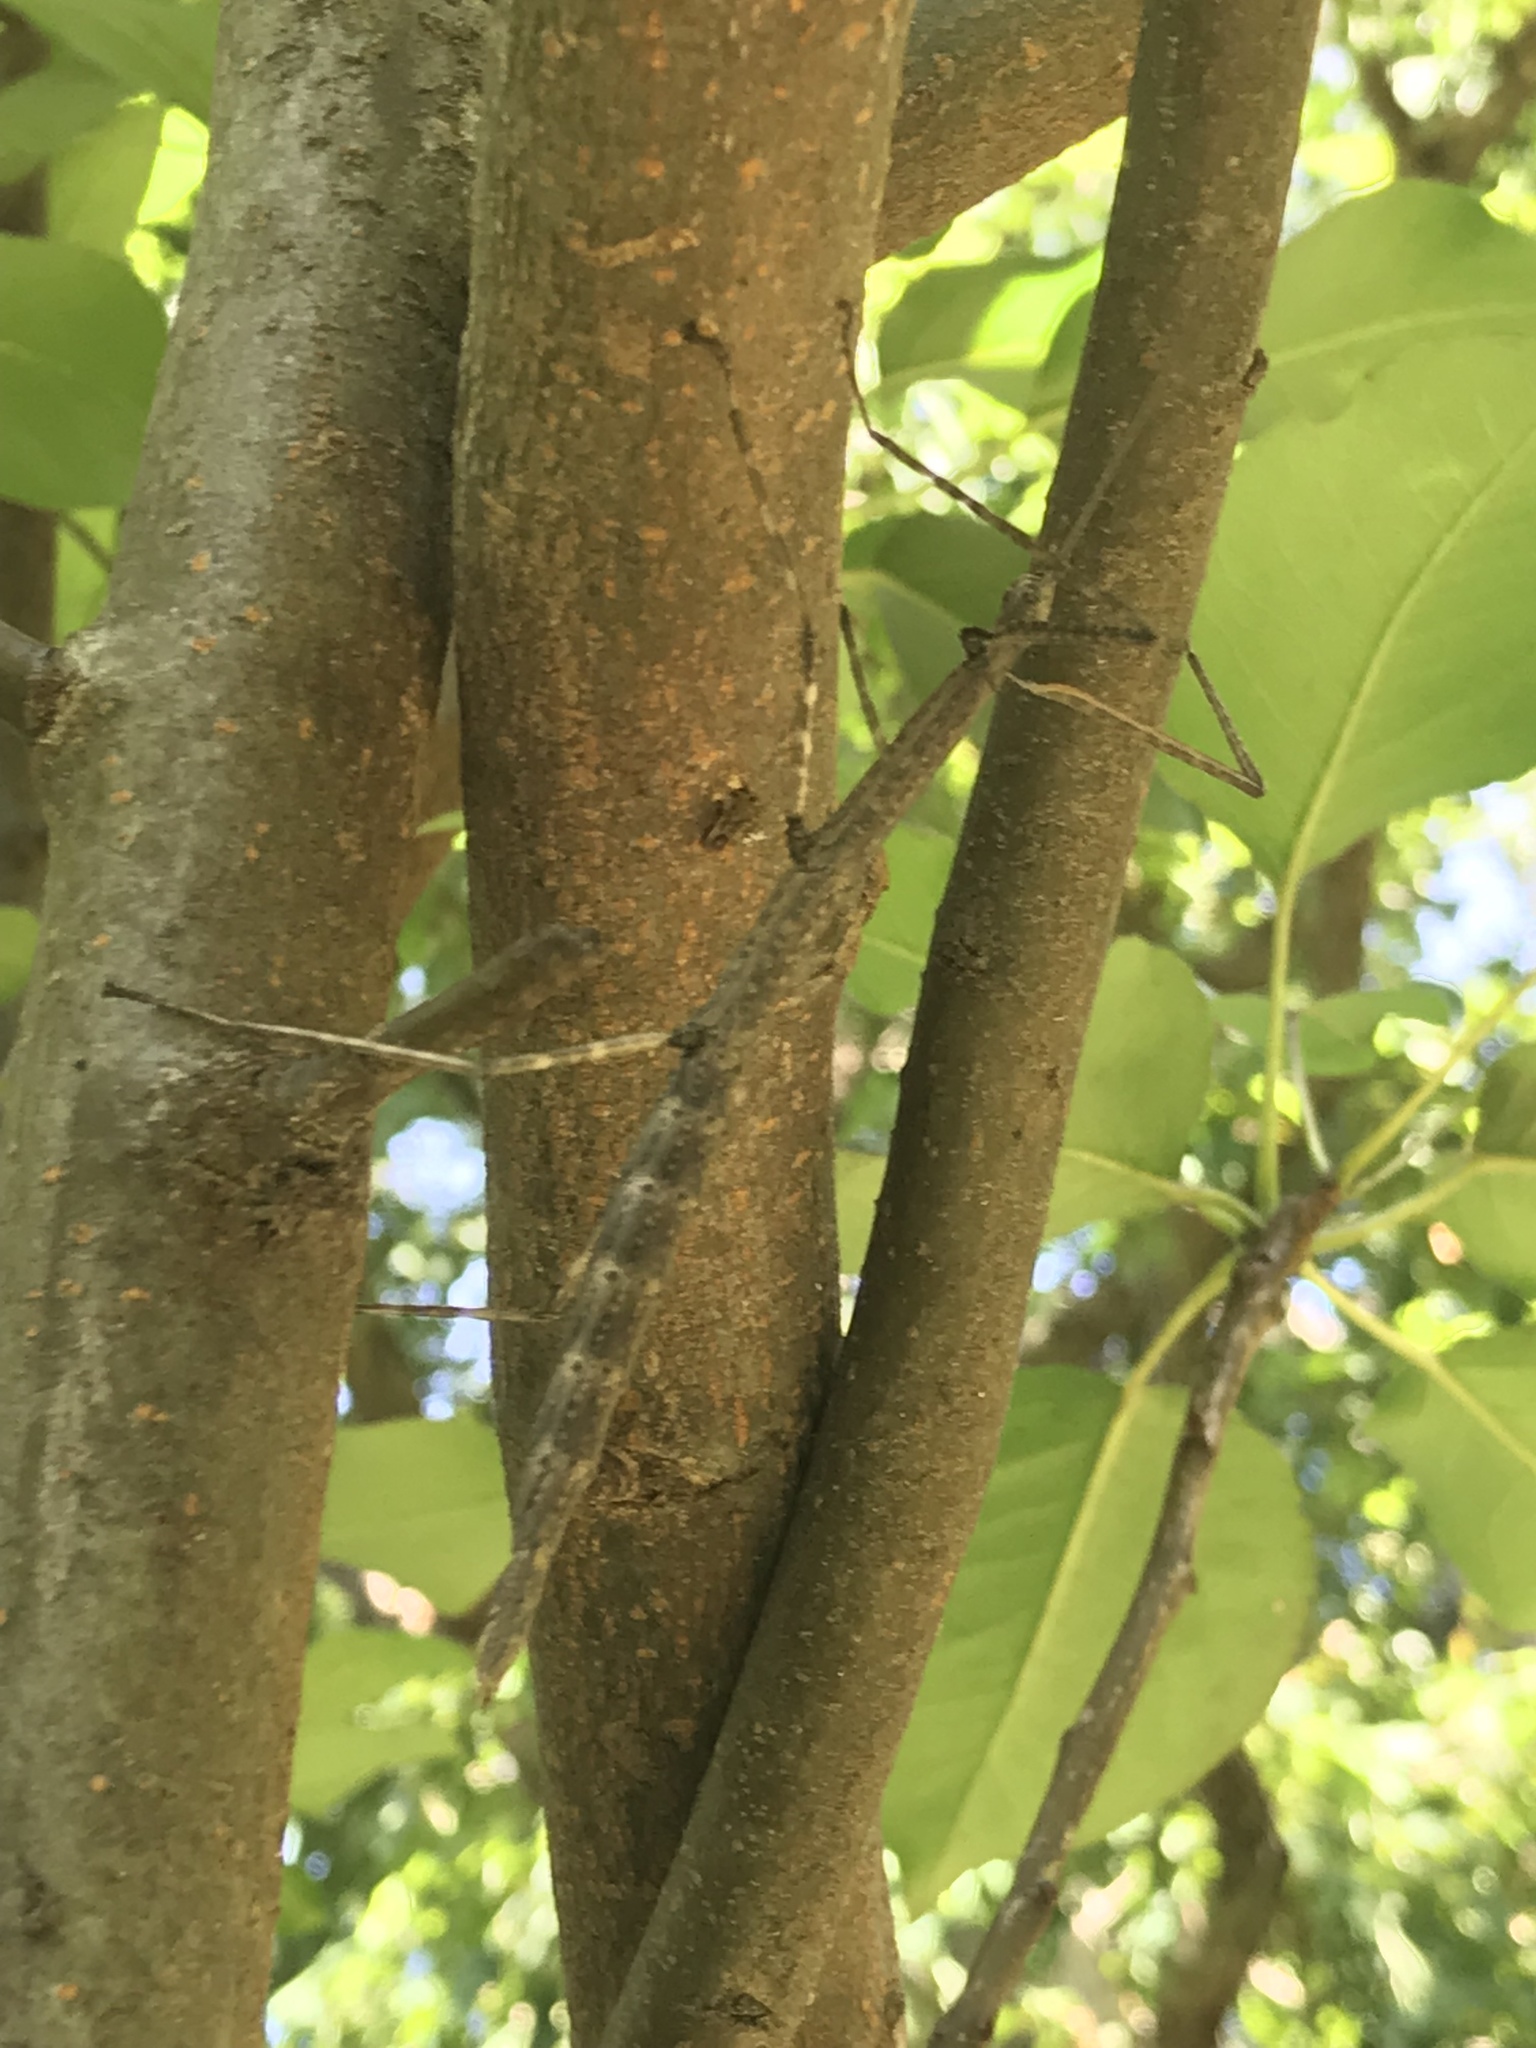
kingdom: Animalia
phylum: Arthropoda
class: Insecta
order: Phasmida
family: Diapheromeridae
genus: Diapheromera
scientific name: Diapheromera femorata
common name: Common american walkingstick
